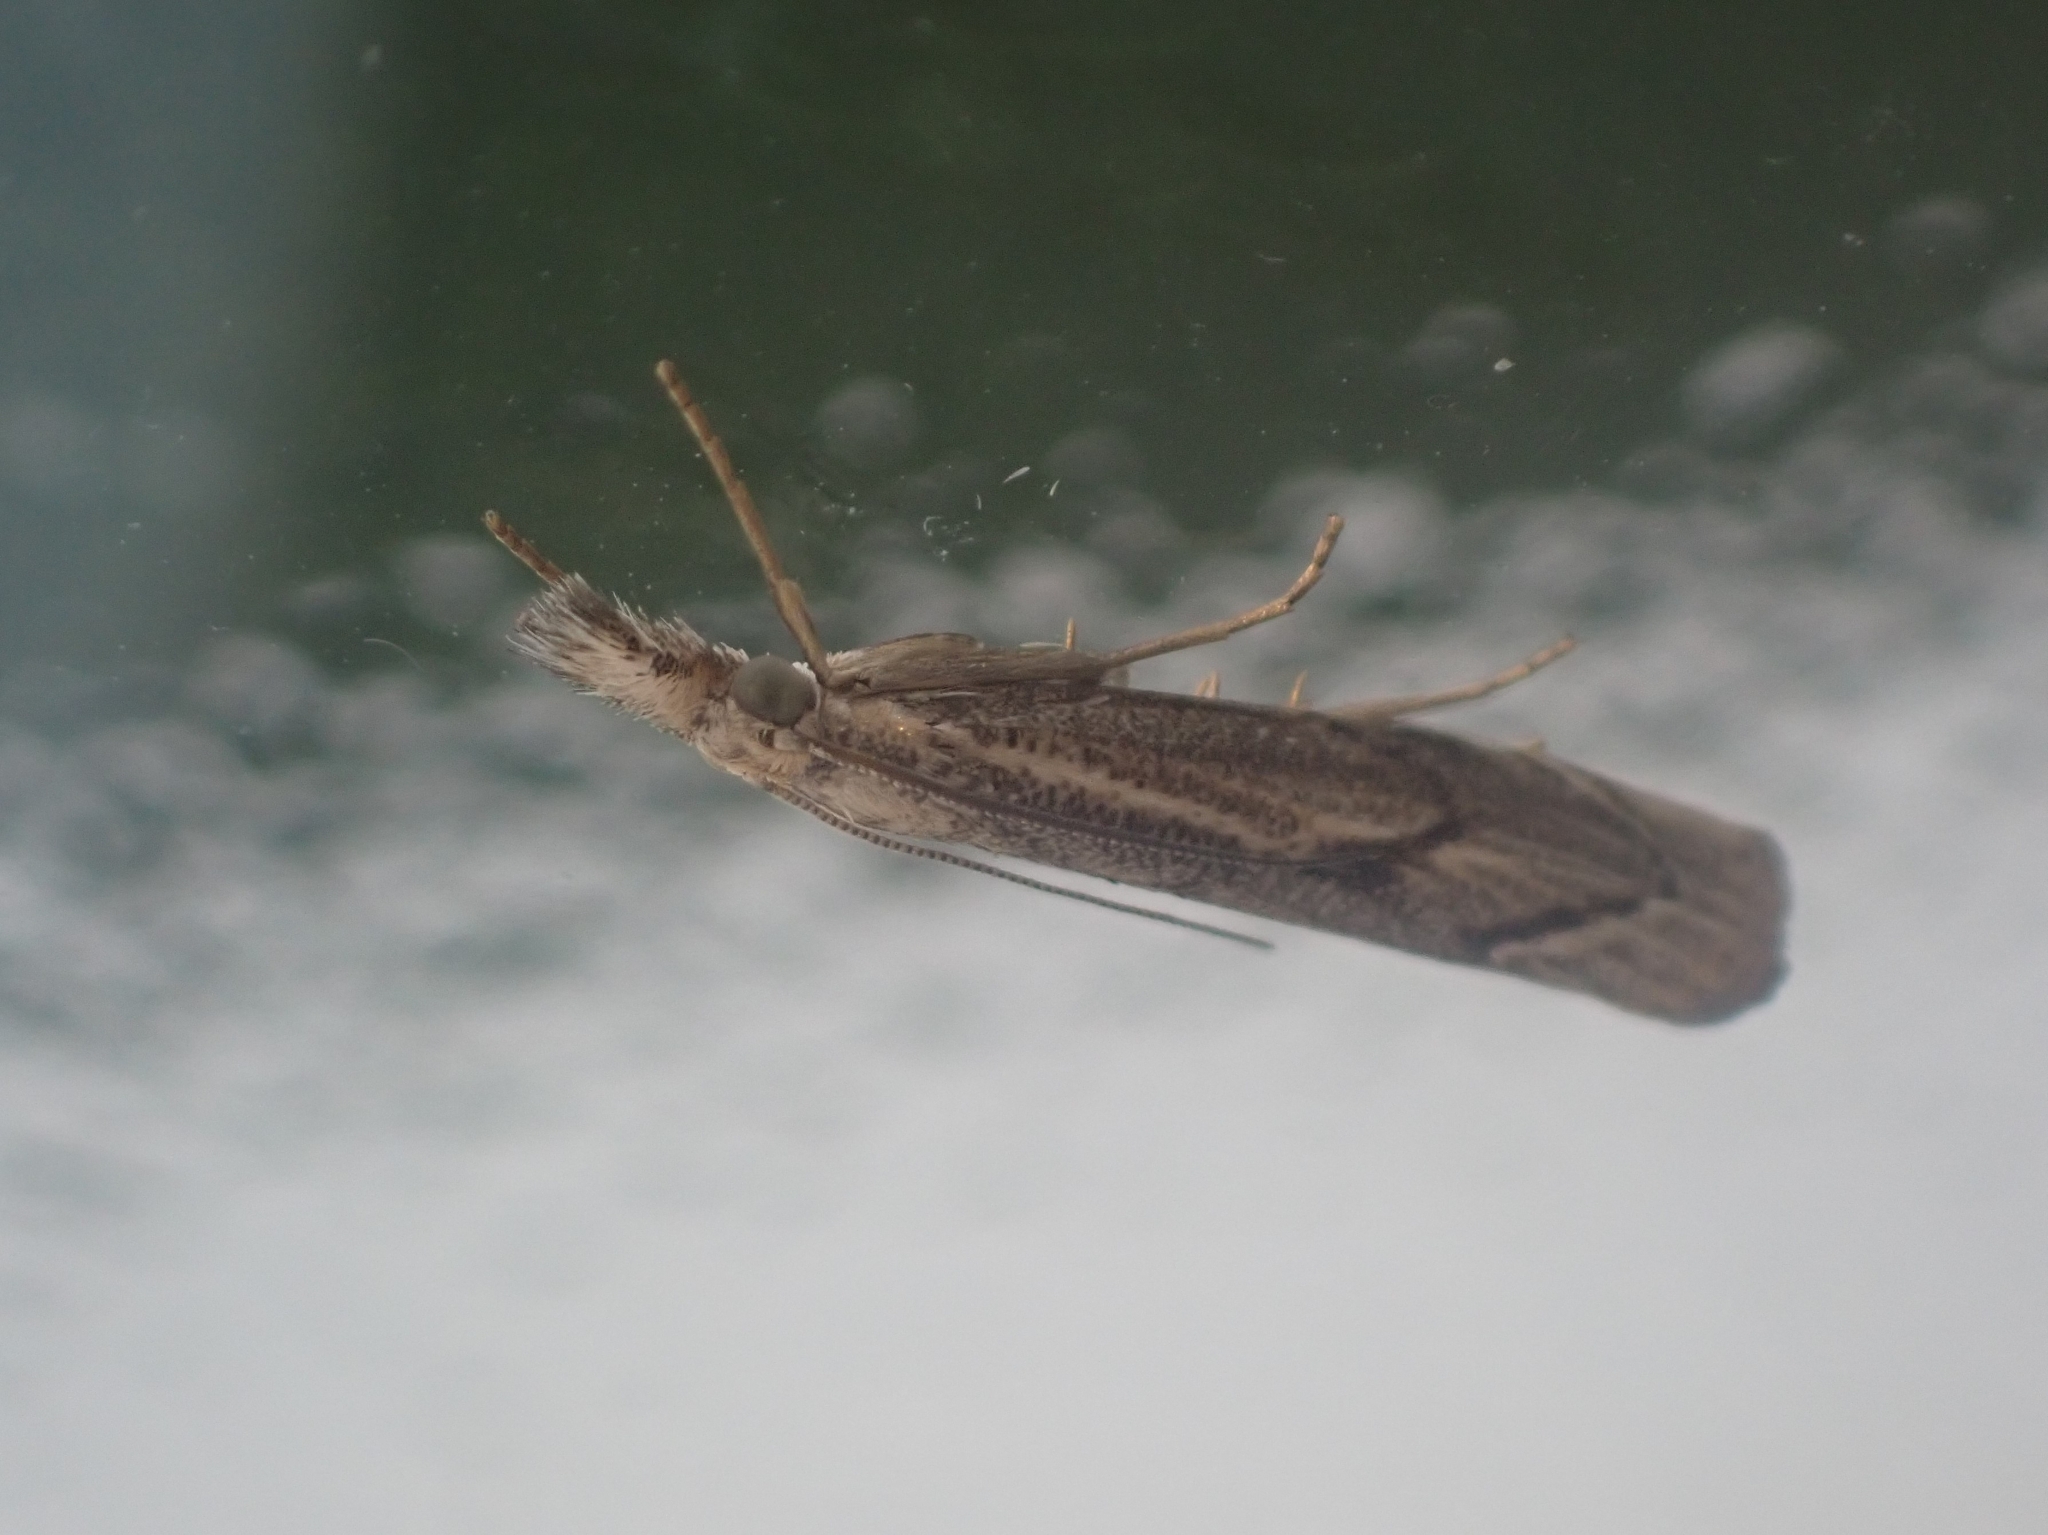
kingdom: Animalia
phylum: Arthropoda
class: Insecta
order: Lepidoptera
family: Crambidae
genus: Agriphila
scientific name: Agriphila geniculea
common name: Elbow-stripe grass-veneer
